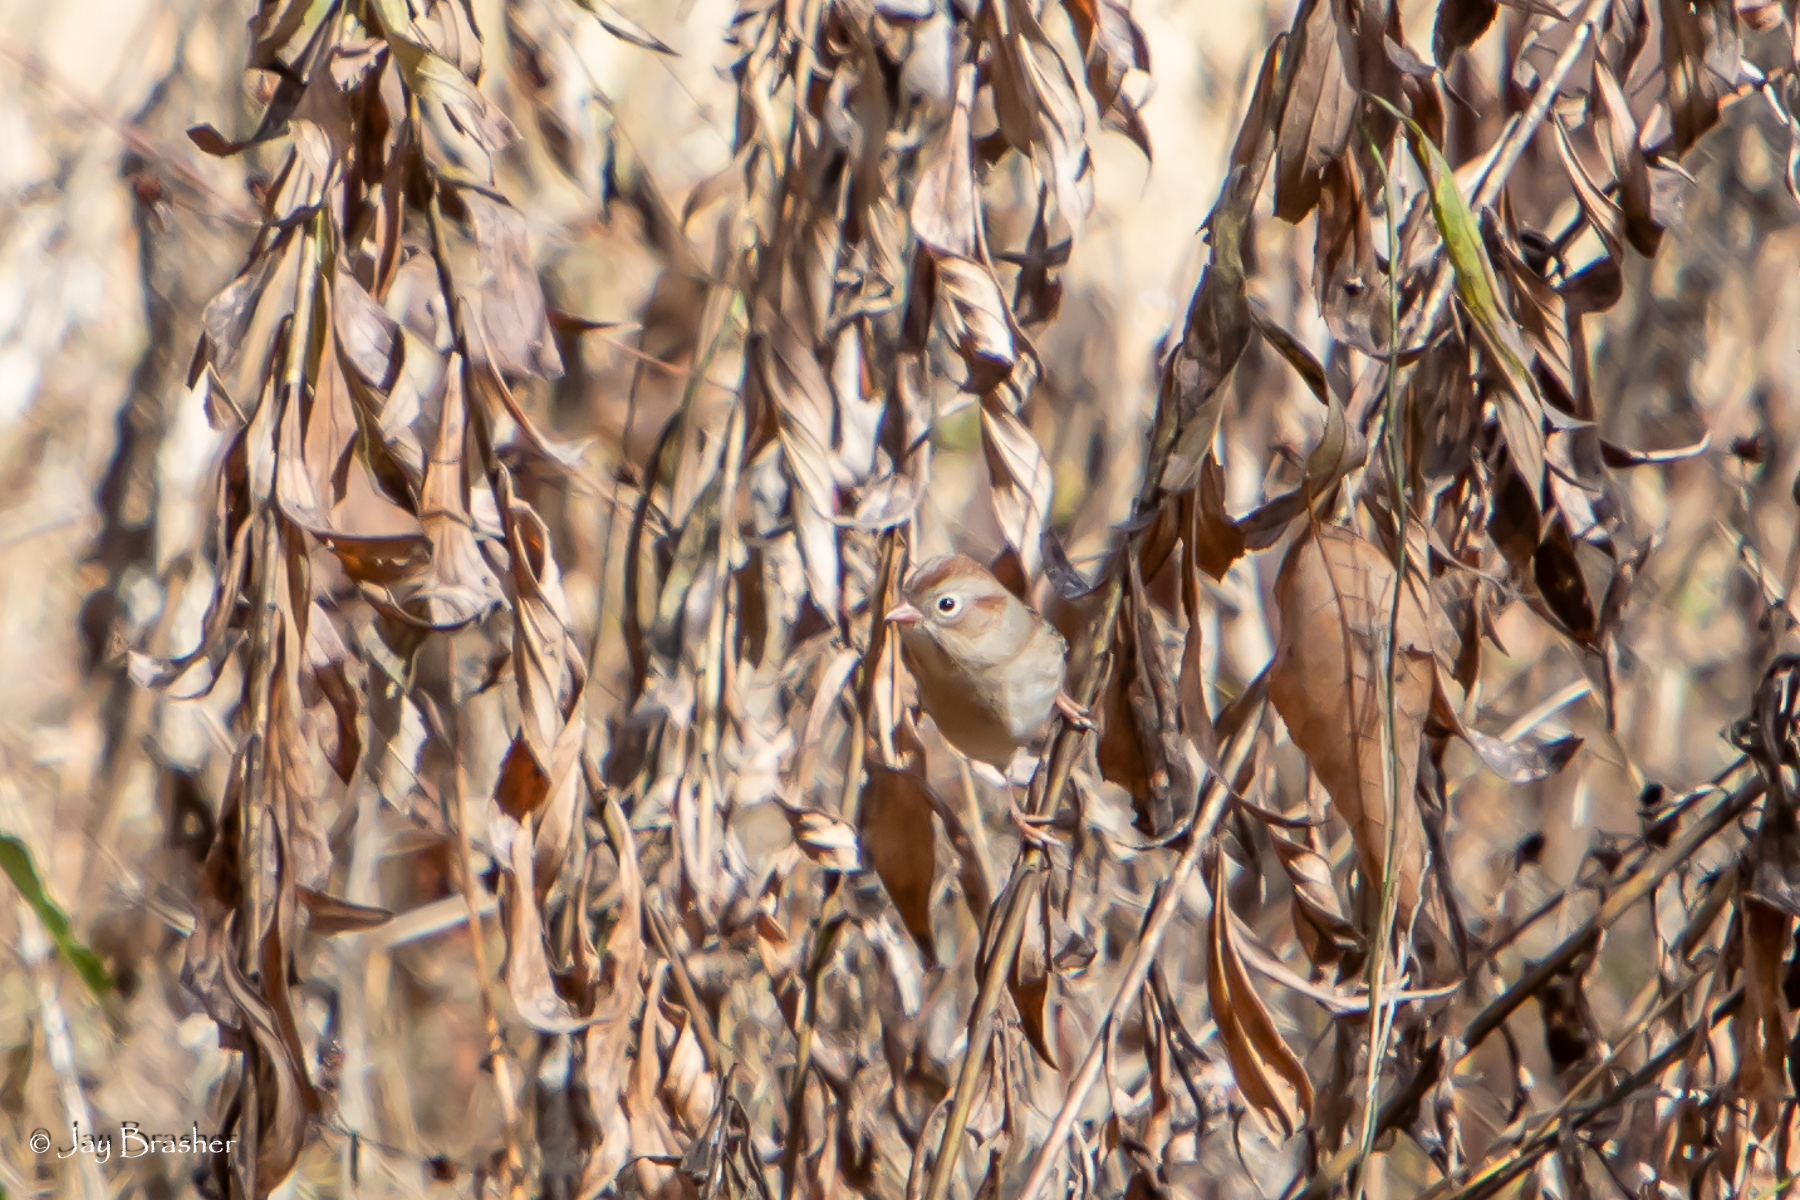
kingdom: Animalia
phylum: Chordata
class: Aves
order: Passeriformes
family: Passerellidae
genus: Spizella
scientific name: Spizella pusilla
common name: Field sparrow
